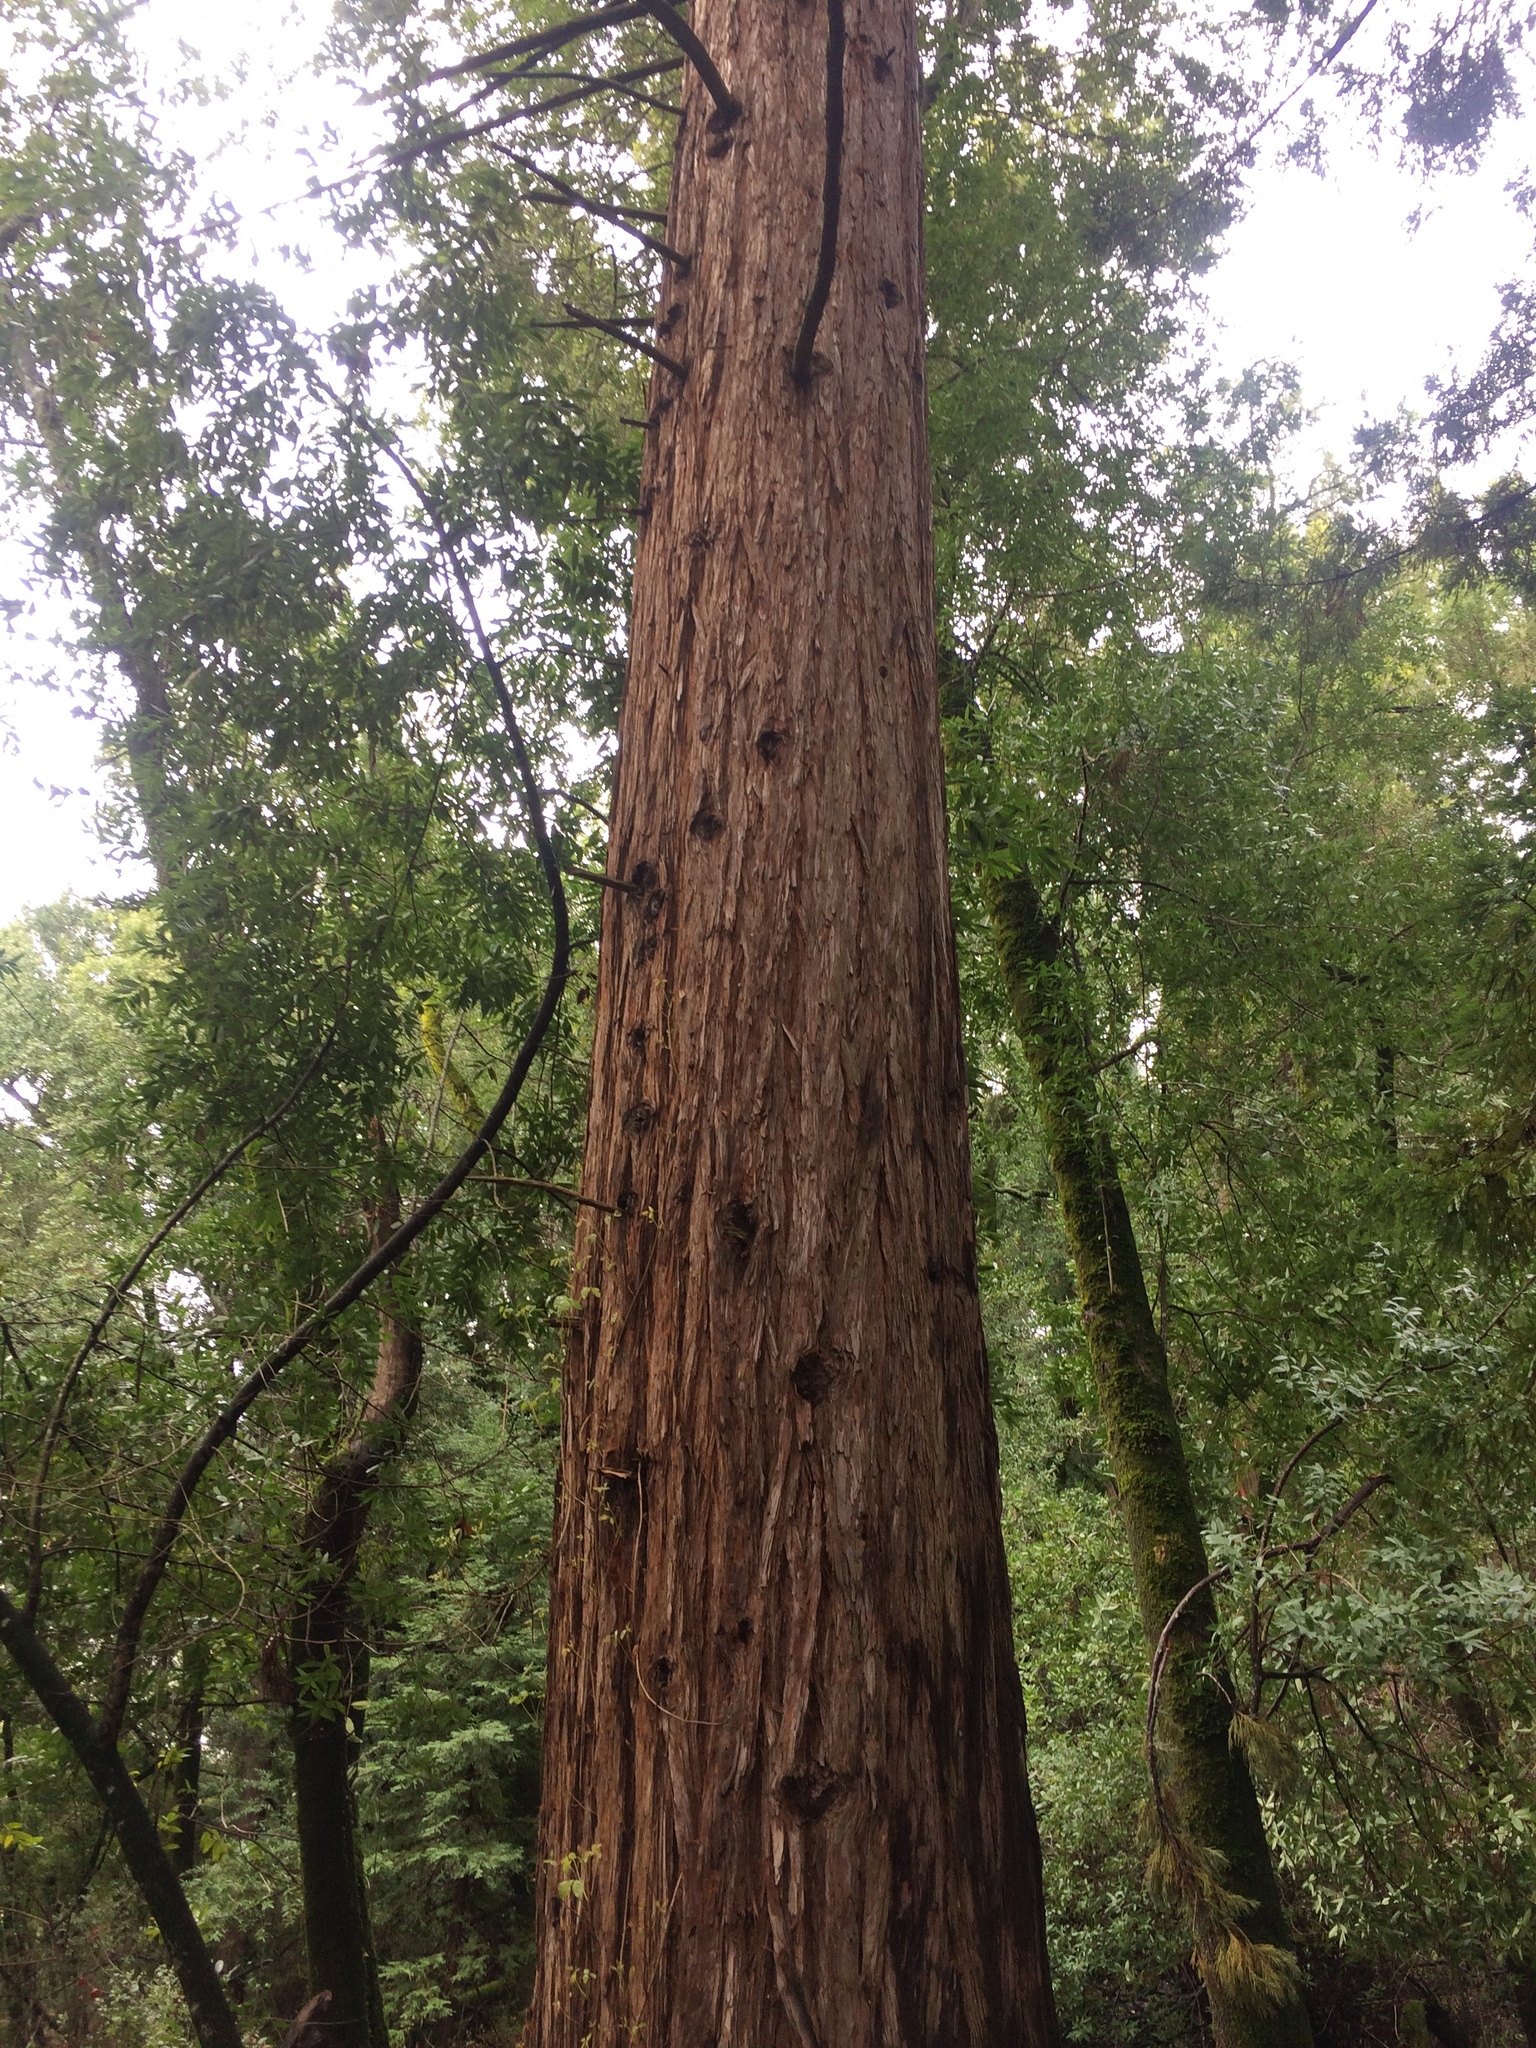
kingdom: Plantae
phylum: Tracheophyta
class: Pinopsida
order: Pinales
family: Cupressaceae
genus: Sequoia
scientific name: Sequoia sempervirens
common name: Coast redwood
